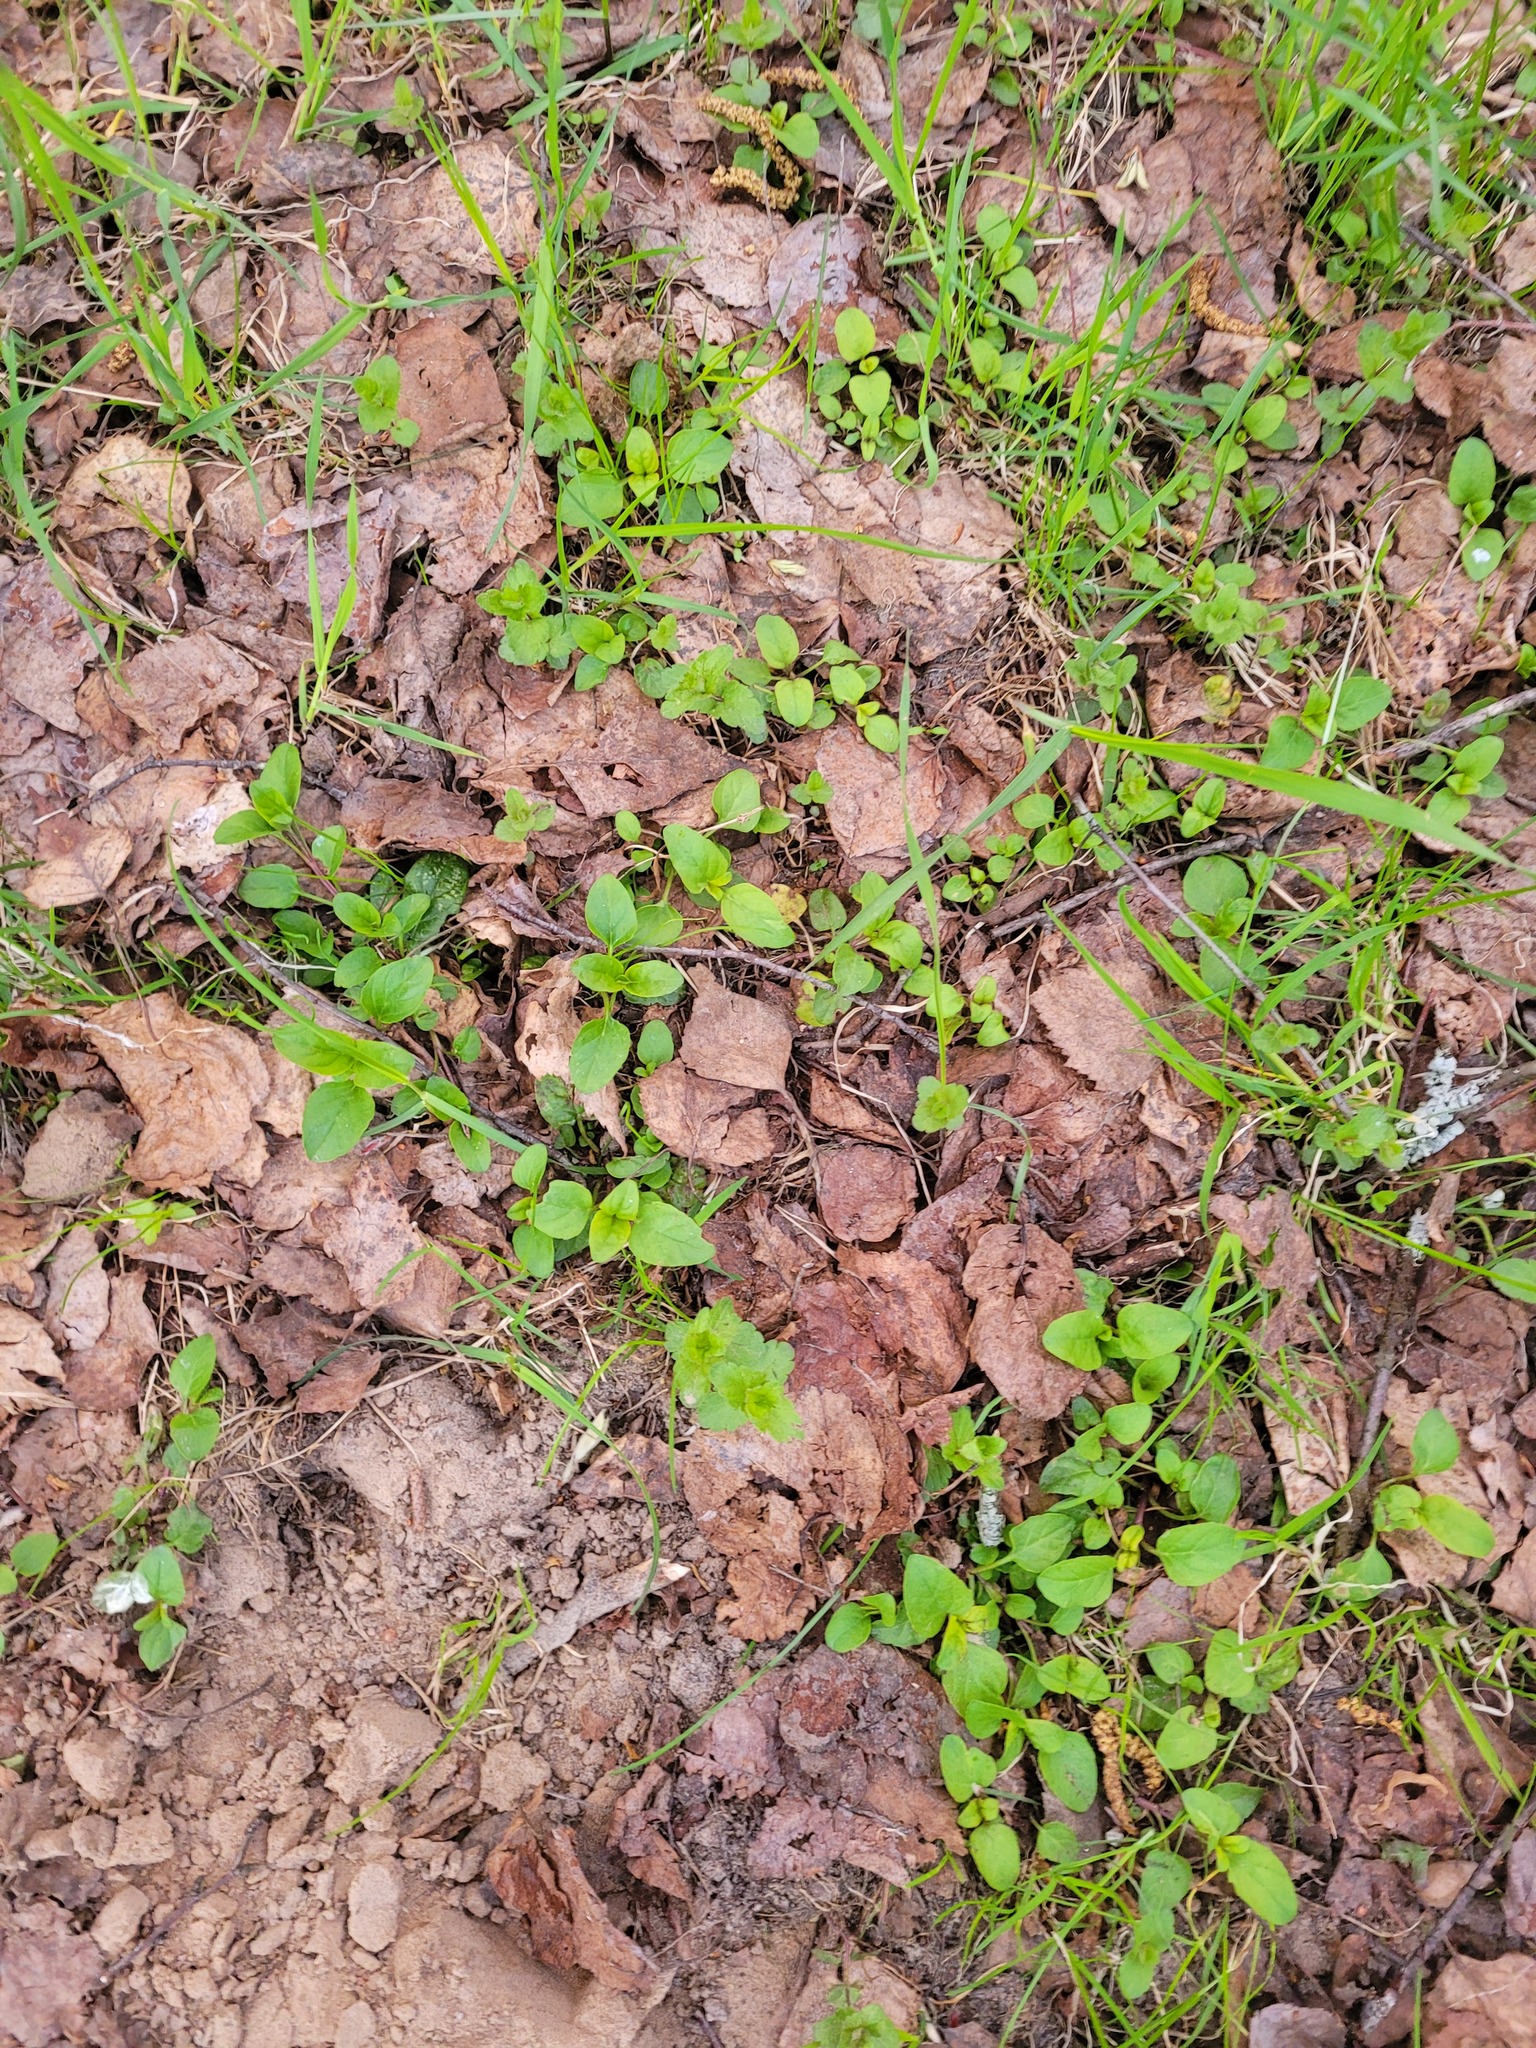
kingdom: Plantae
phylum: Tracheophyta
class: Magnoliopsida
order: Lamiales
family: Lamiaceae
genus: Prunella
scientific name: Prunella vulgaris
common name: Heal-all
